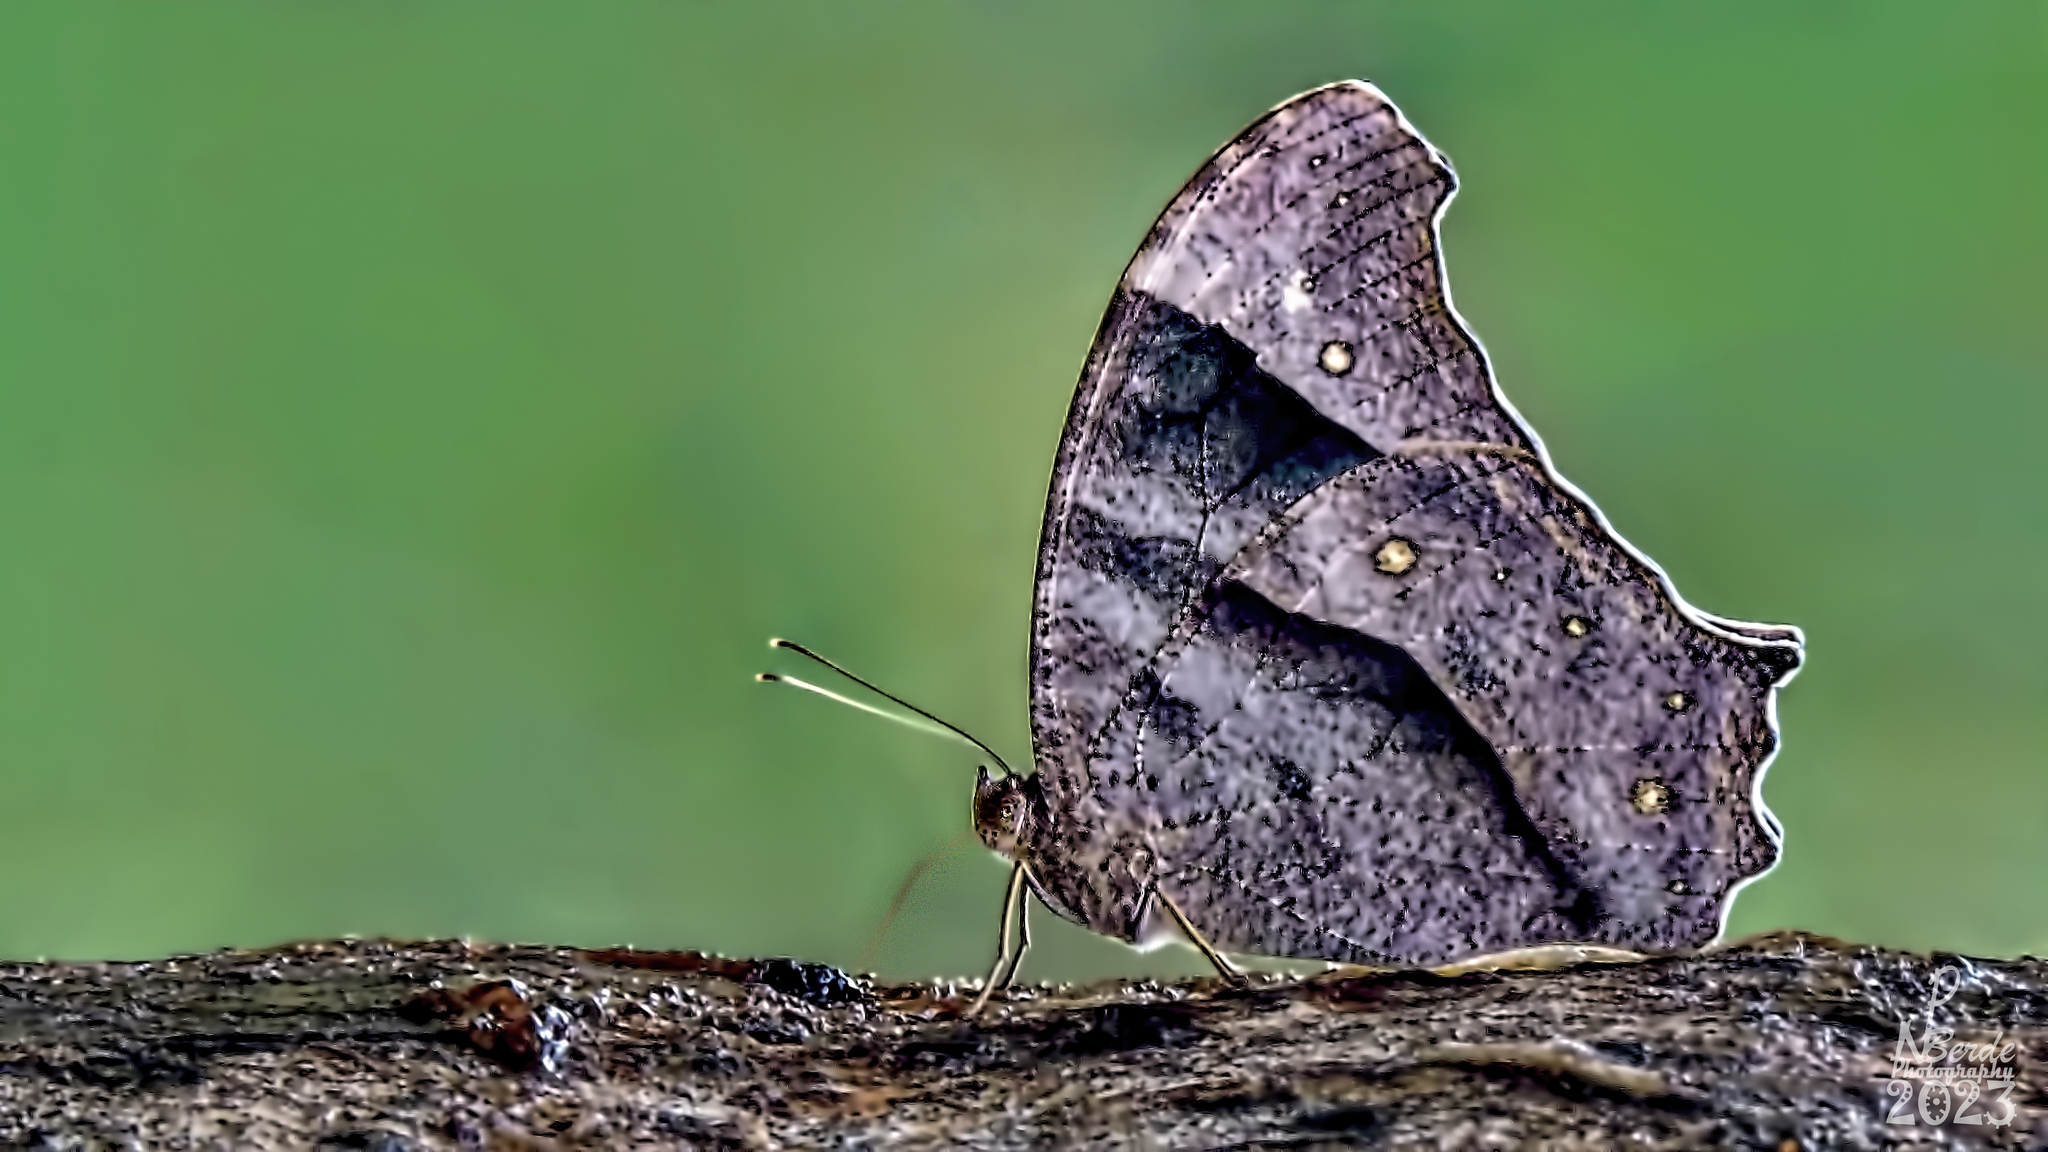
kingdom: Animalia
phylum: Arthropoda
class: Insecta
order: Lepidoptera
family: Nymphalidae
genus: Melanitis
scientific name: Melanitis leda
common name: Twilight brown
